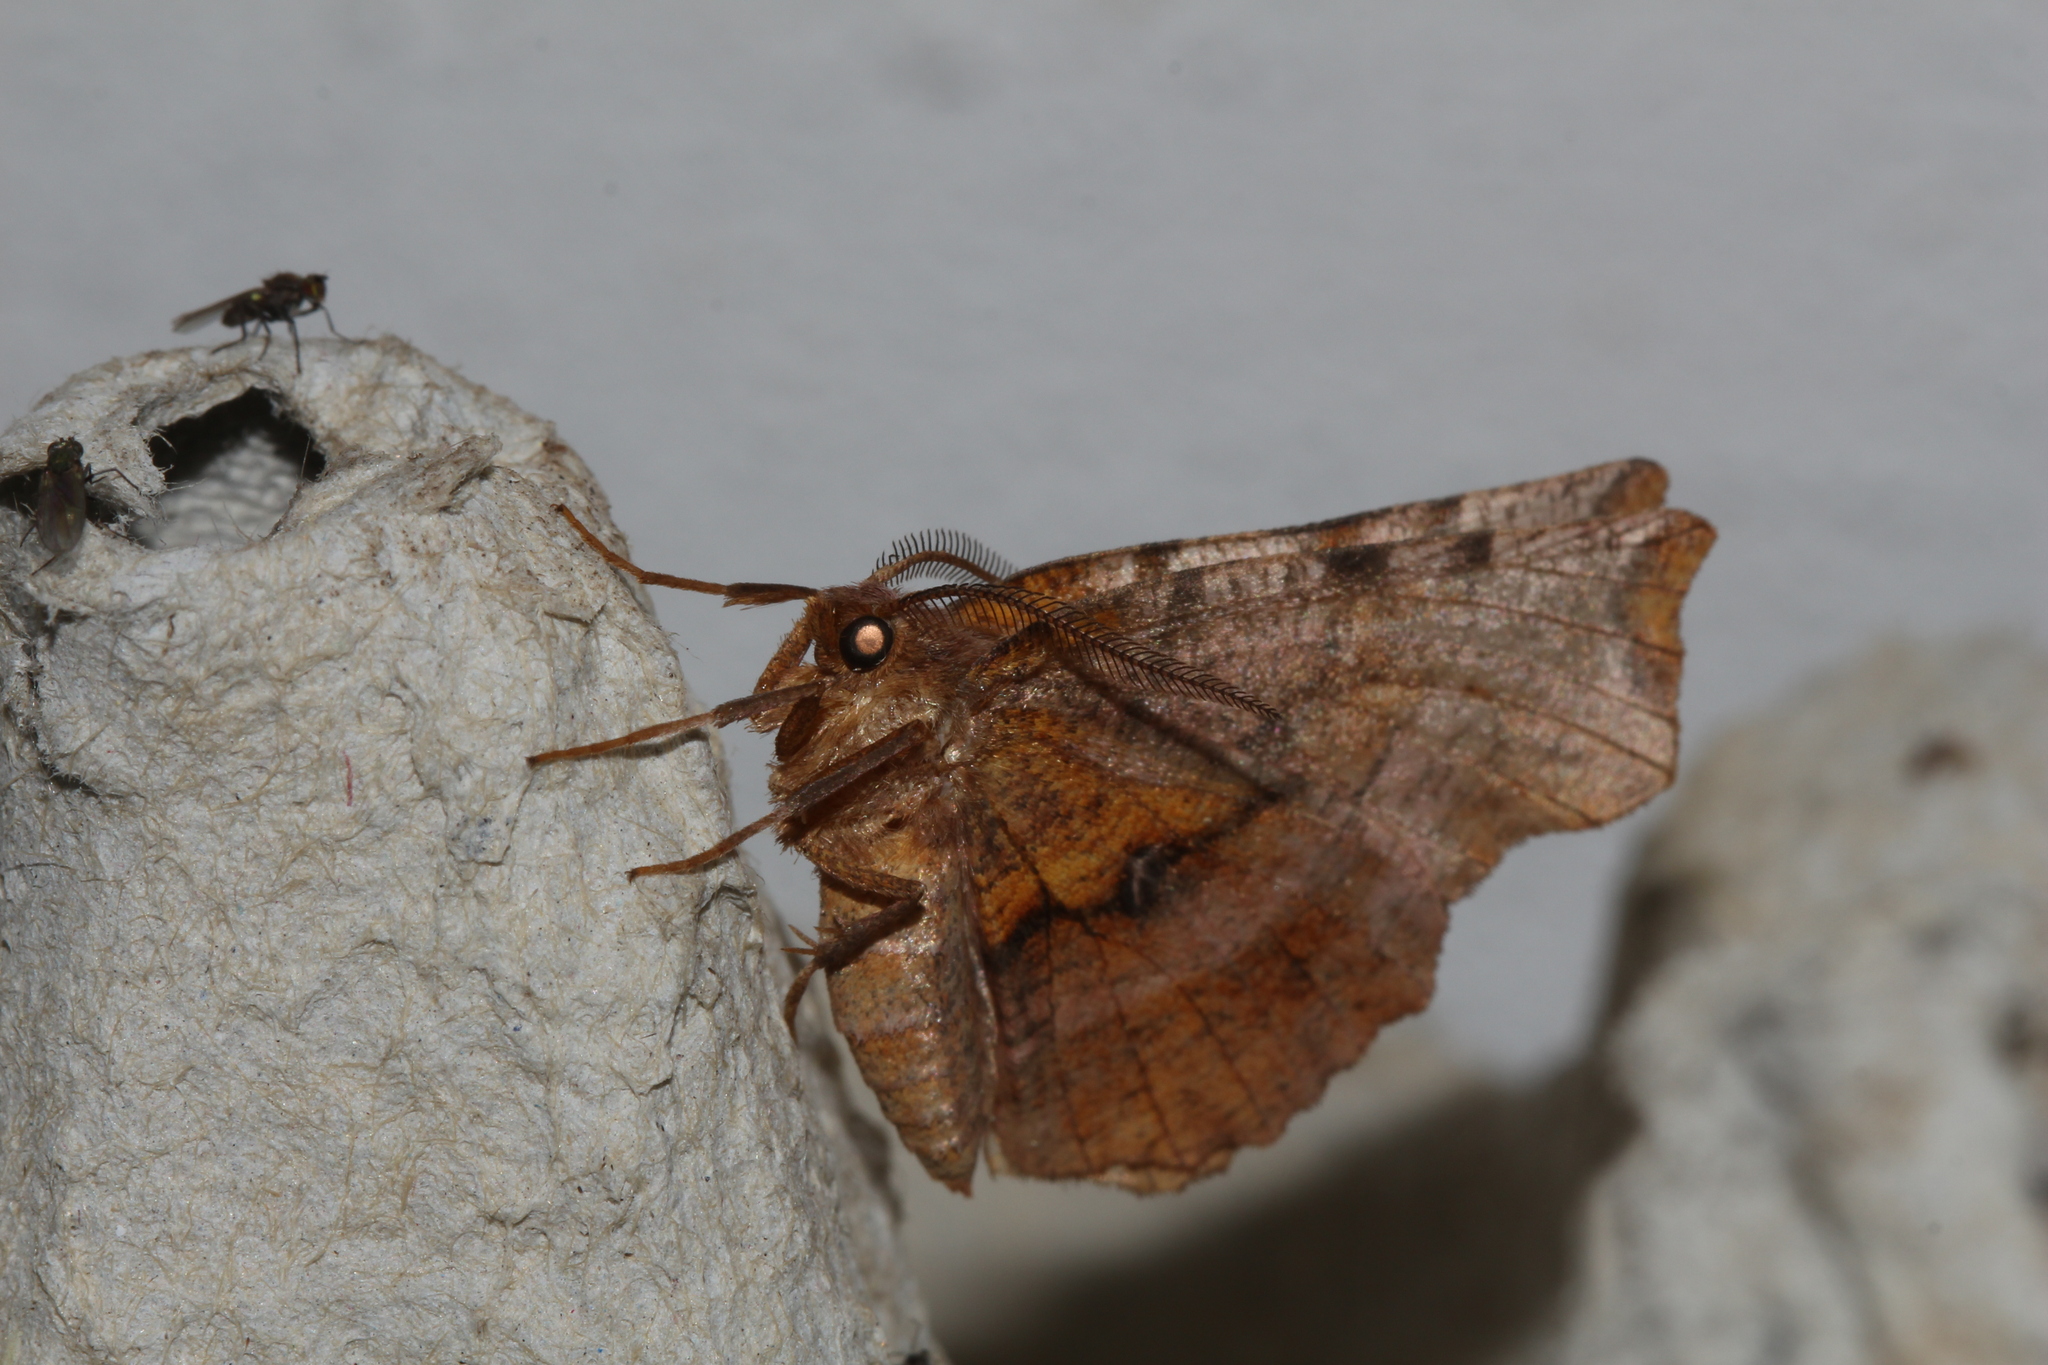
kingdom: Animalia
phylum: Arthropoda
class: Insecta
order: Lepidoptera
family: Geometridae
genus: Selenia
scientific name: Selenia dentaria
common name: Early thorn
